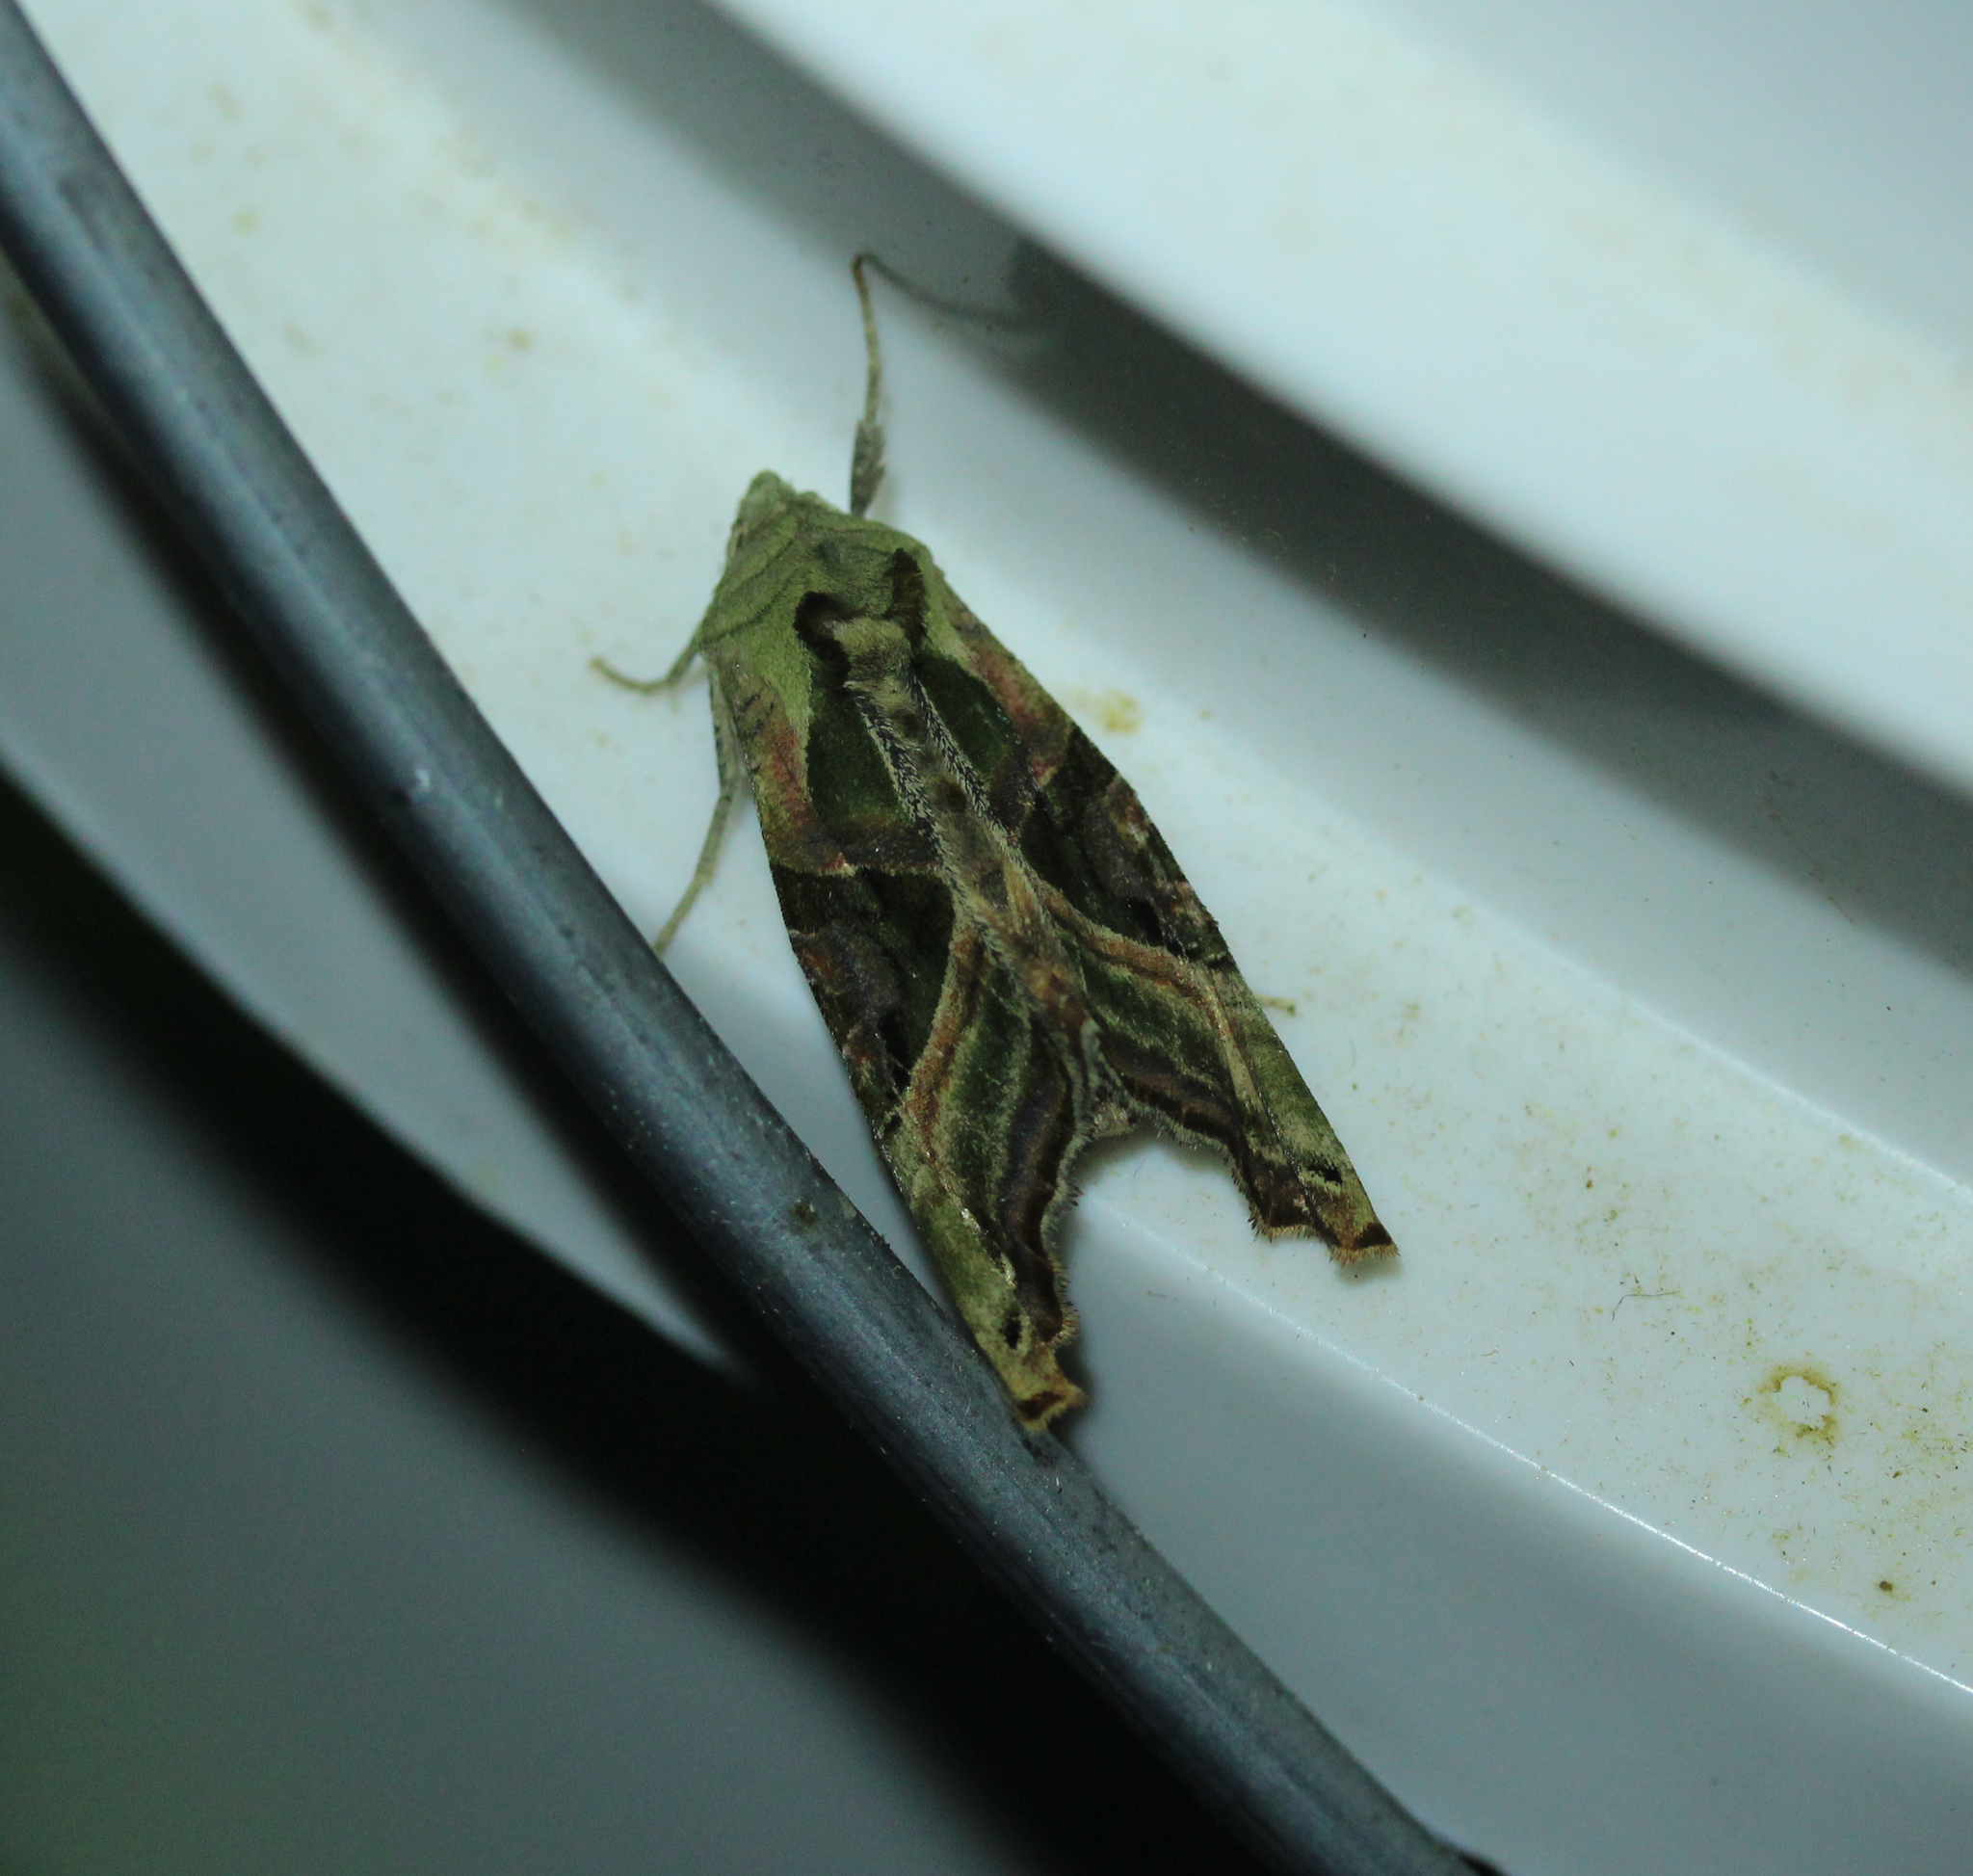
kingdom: Animalia
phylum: Arthropoda
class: Insecta
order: Lepidoptera
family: Noctuidae
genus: Phlogophora
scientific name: Phlogophora iris
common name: Olive angle shades
